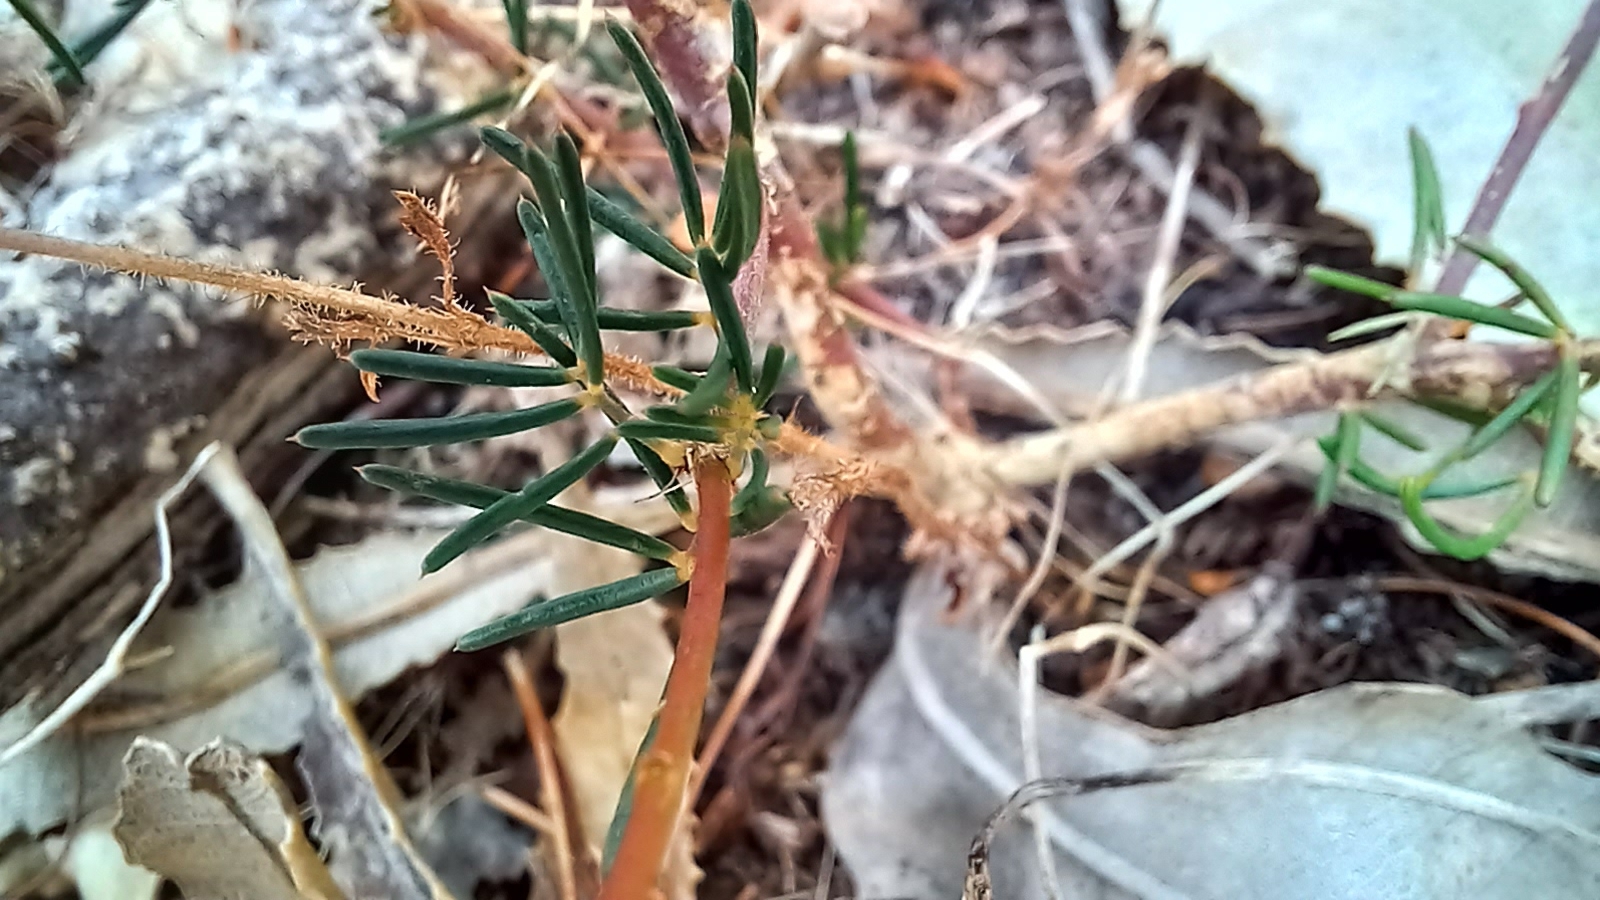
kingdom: Plantae
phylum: Tracheophyta
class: Magnoliopsida
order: Fabales
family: Fabaceae
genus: Gompholobium
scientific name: Gompholobium tomentosum
